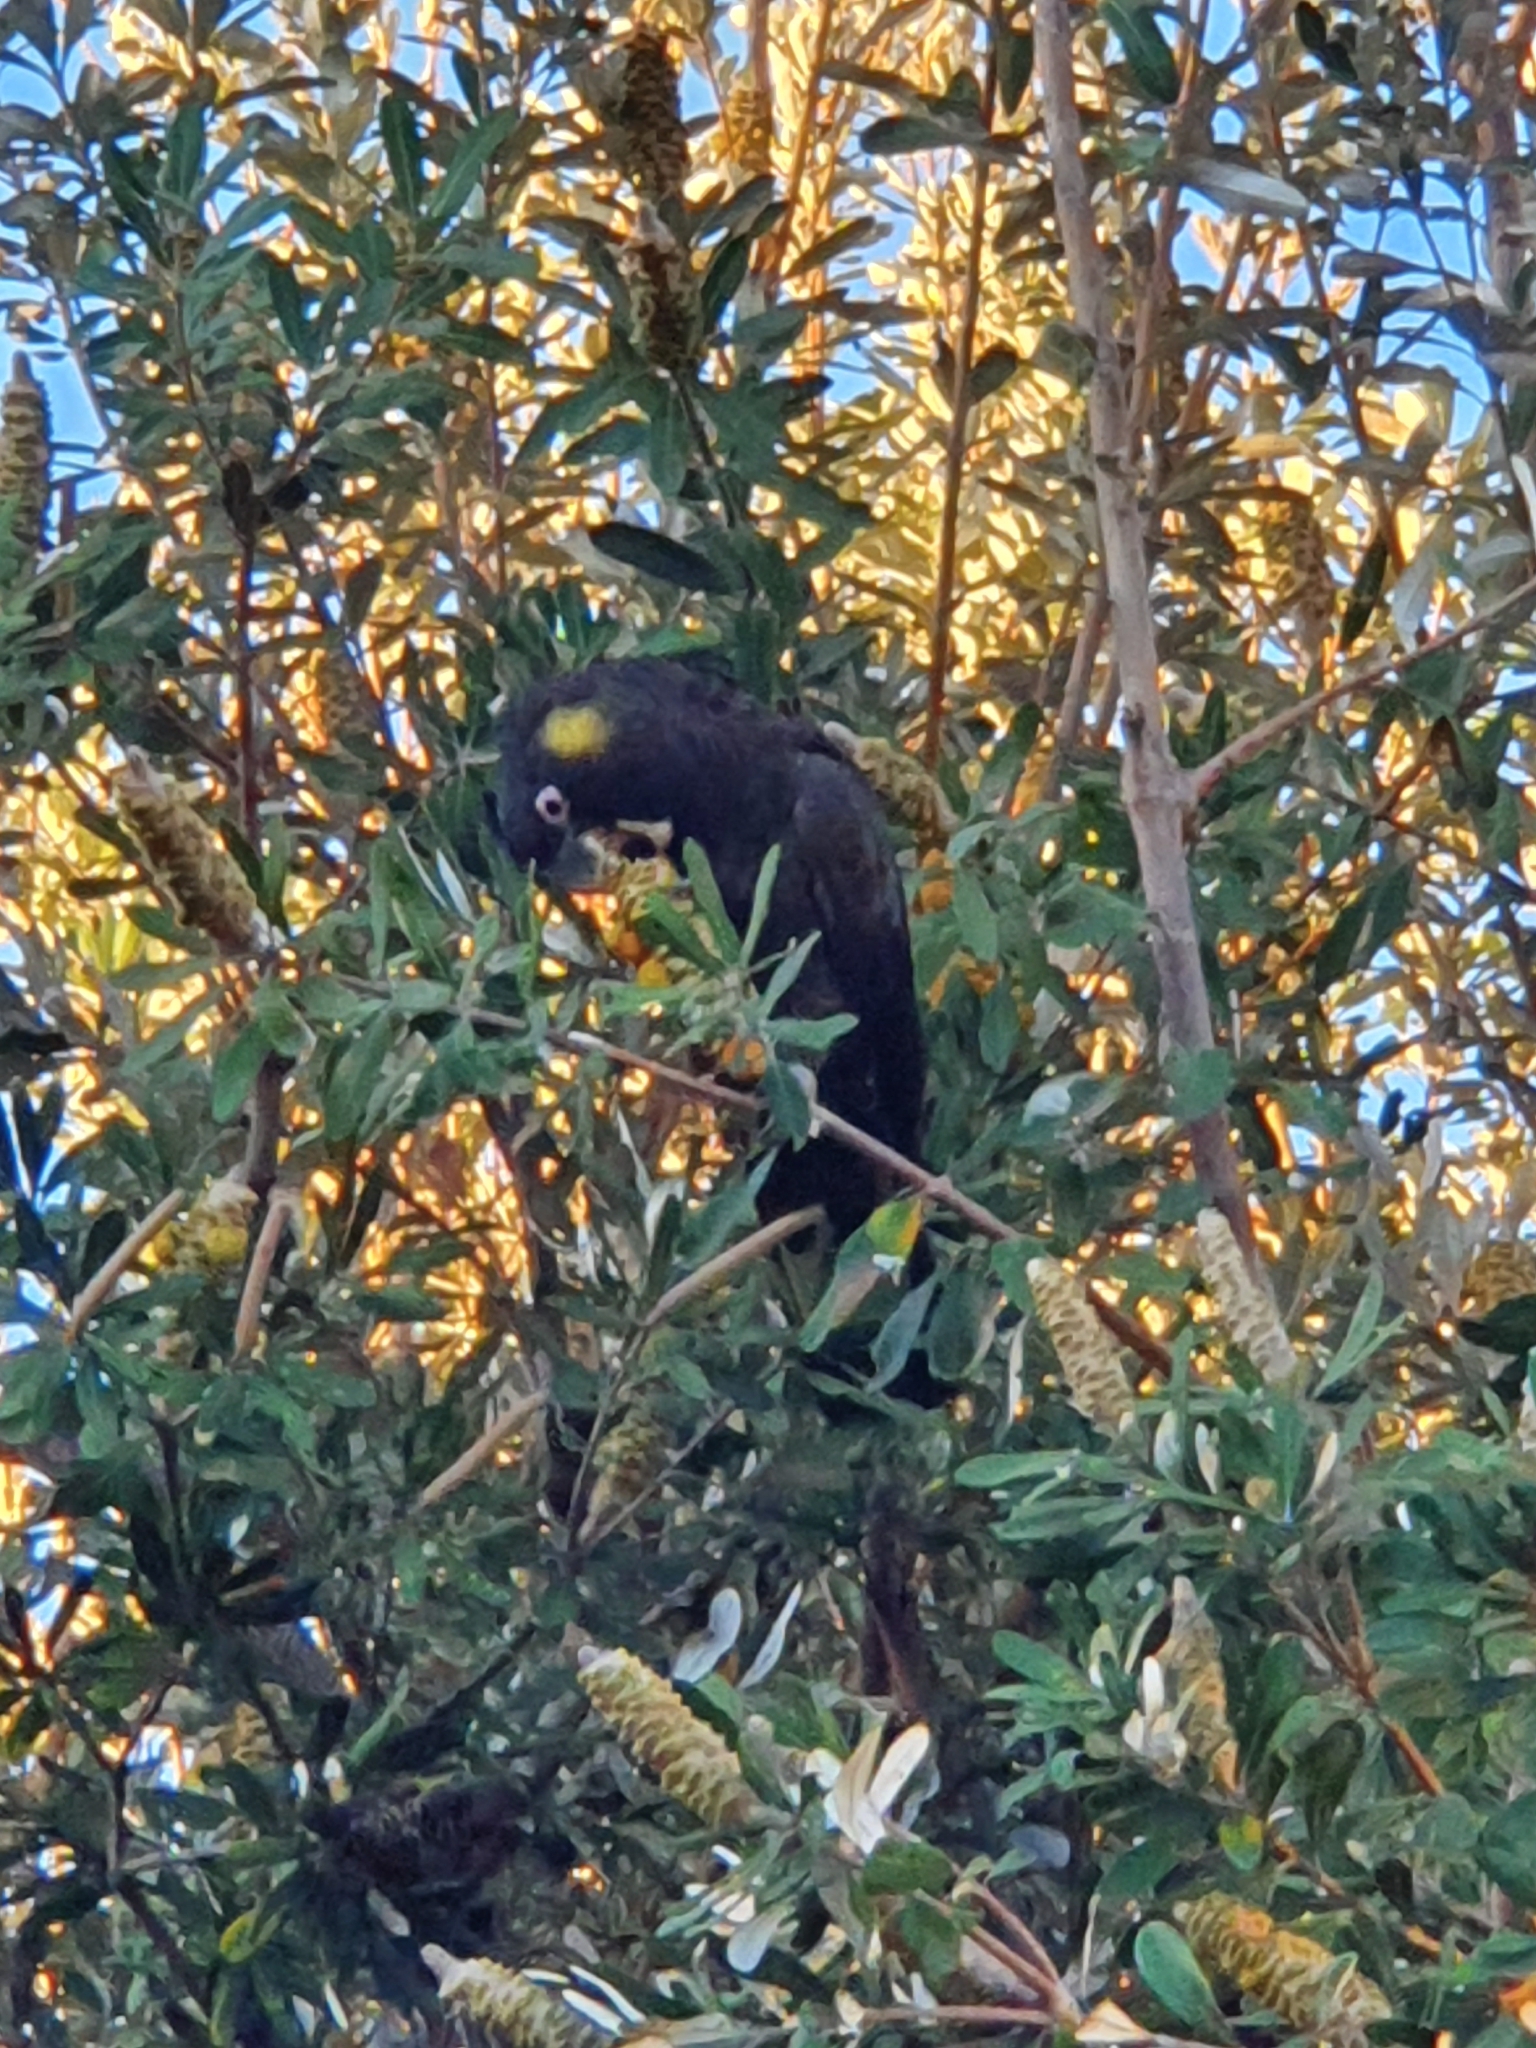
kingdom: Animalia
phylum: Chordata
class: Aves
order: Psittaciformes
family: Cacatuidae
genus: Zanda
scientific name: Zanda funerea
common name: Yellow-tailed black-cockatoo
